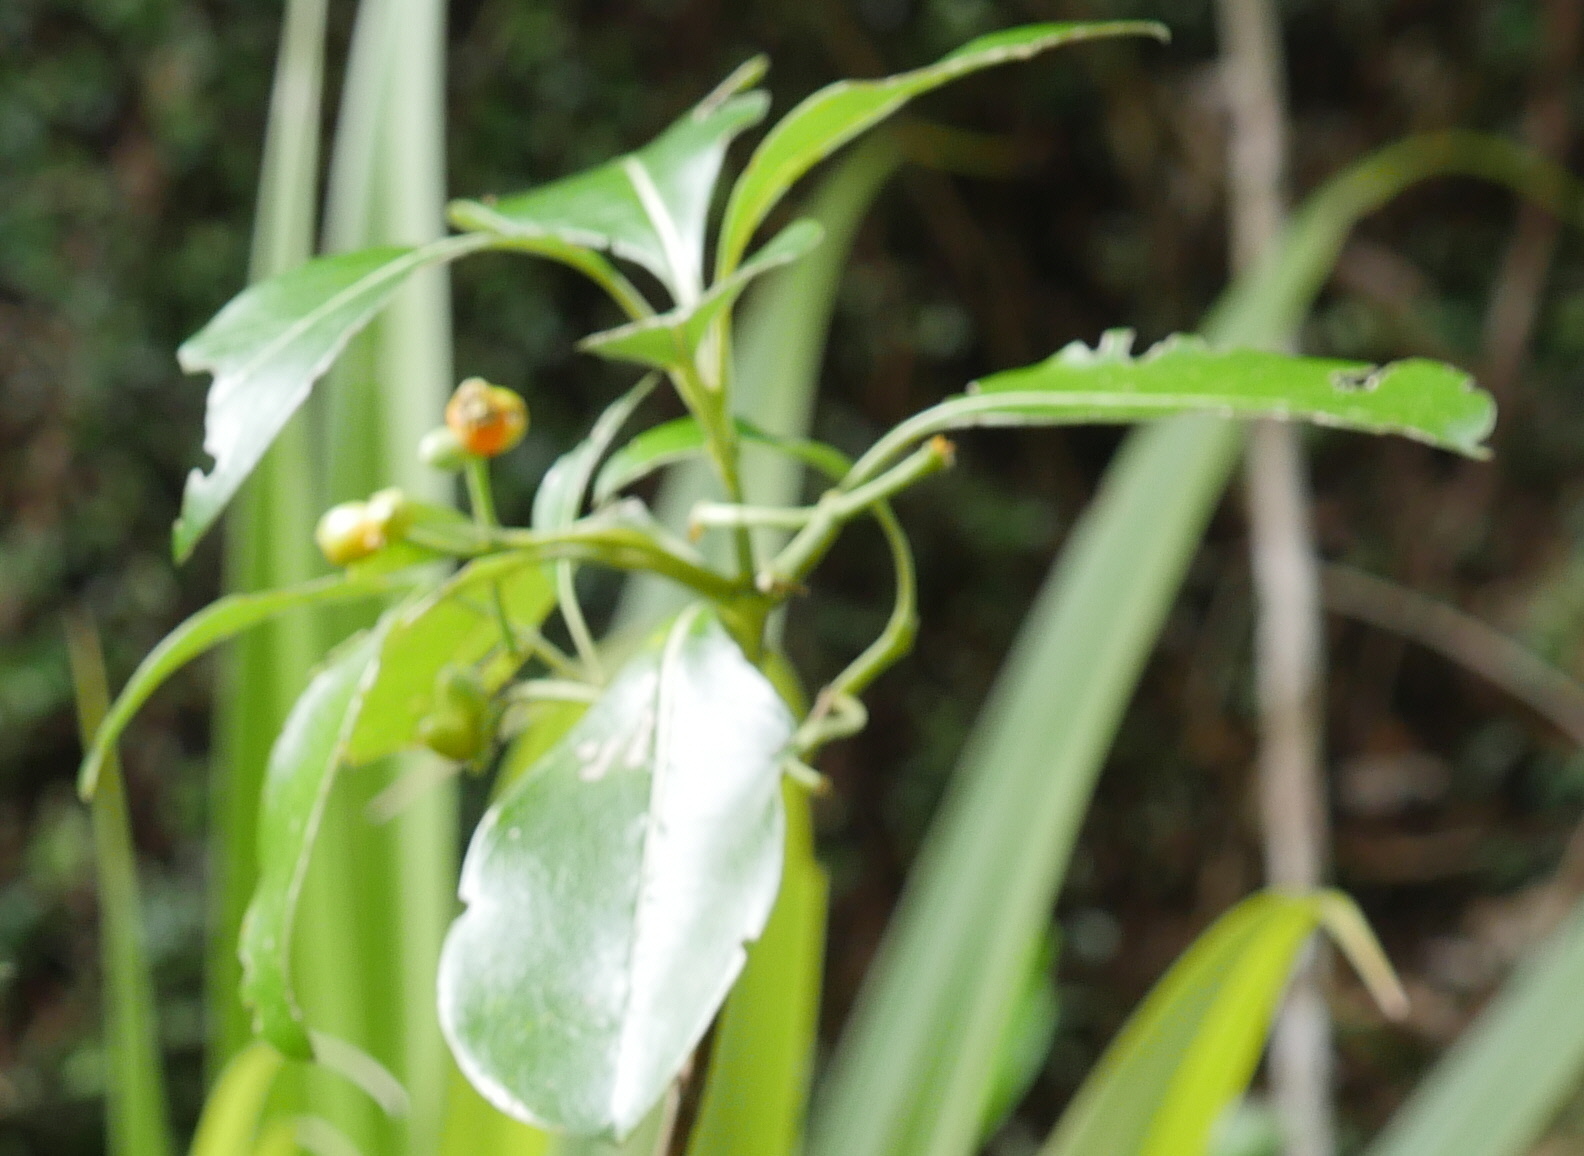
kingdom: Plantae
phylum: Tracheophyta
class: Magnoliopsida
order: Gentianales
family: Rubiaceae
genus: Coprosma
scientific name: Coprosma robusta
